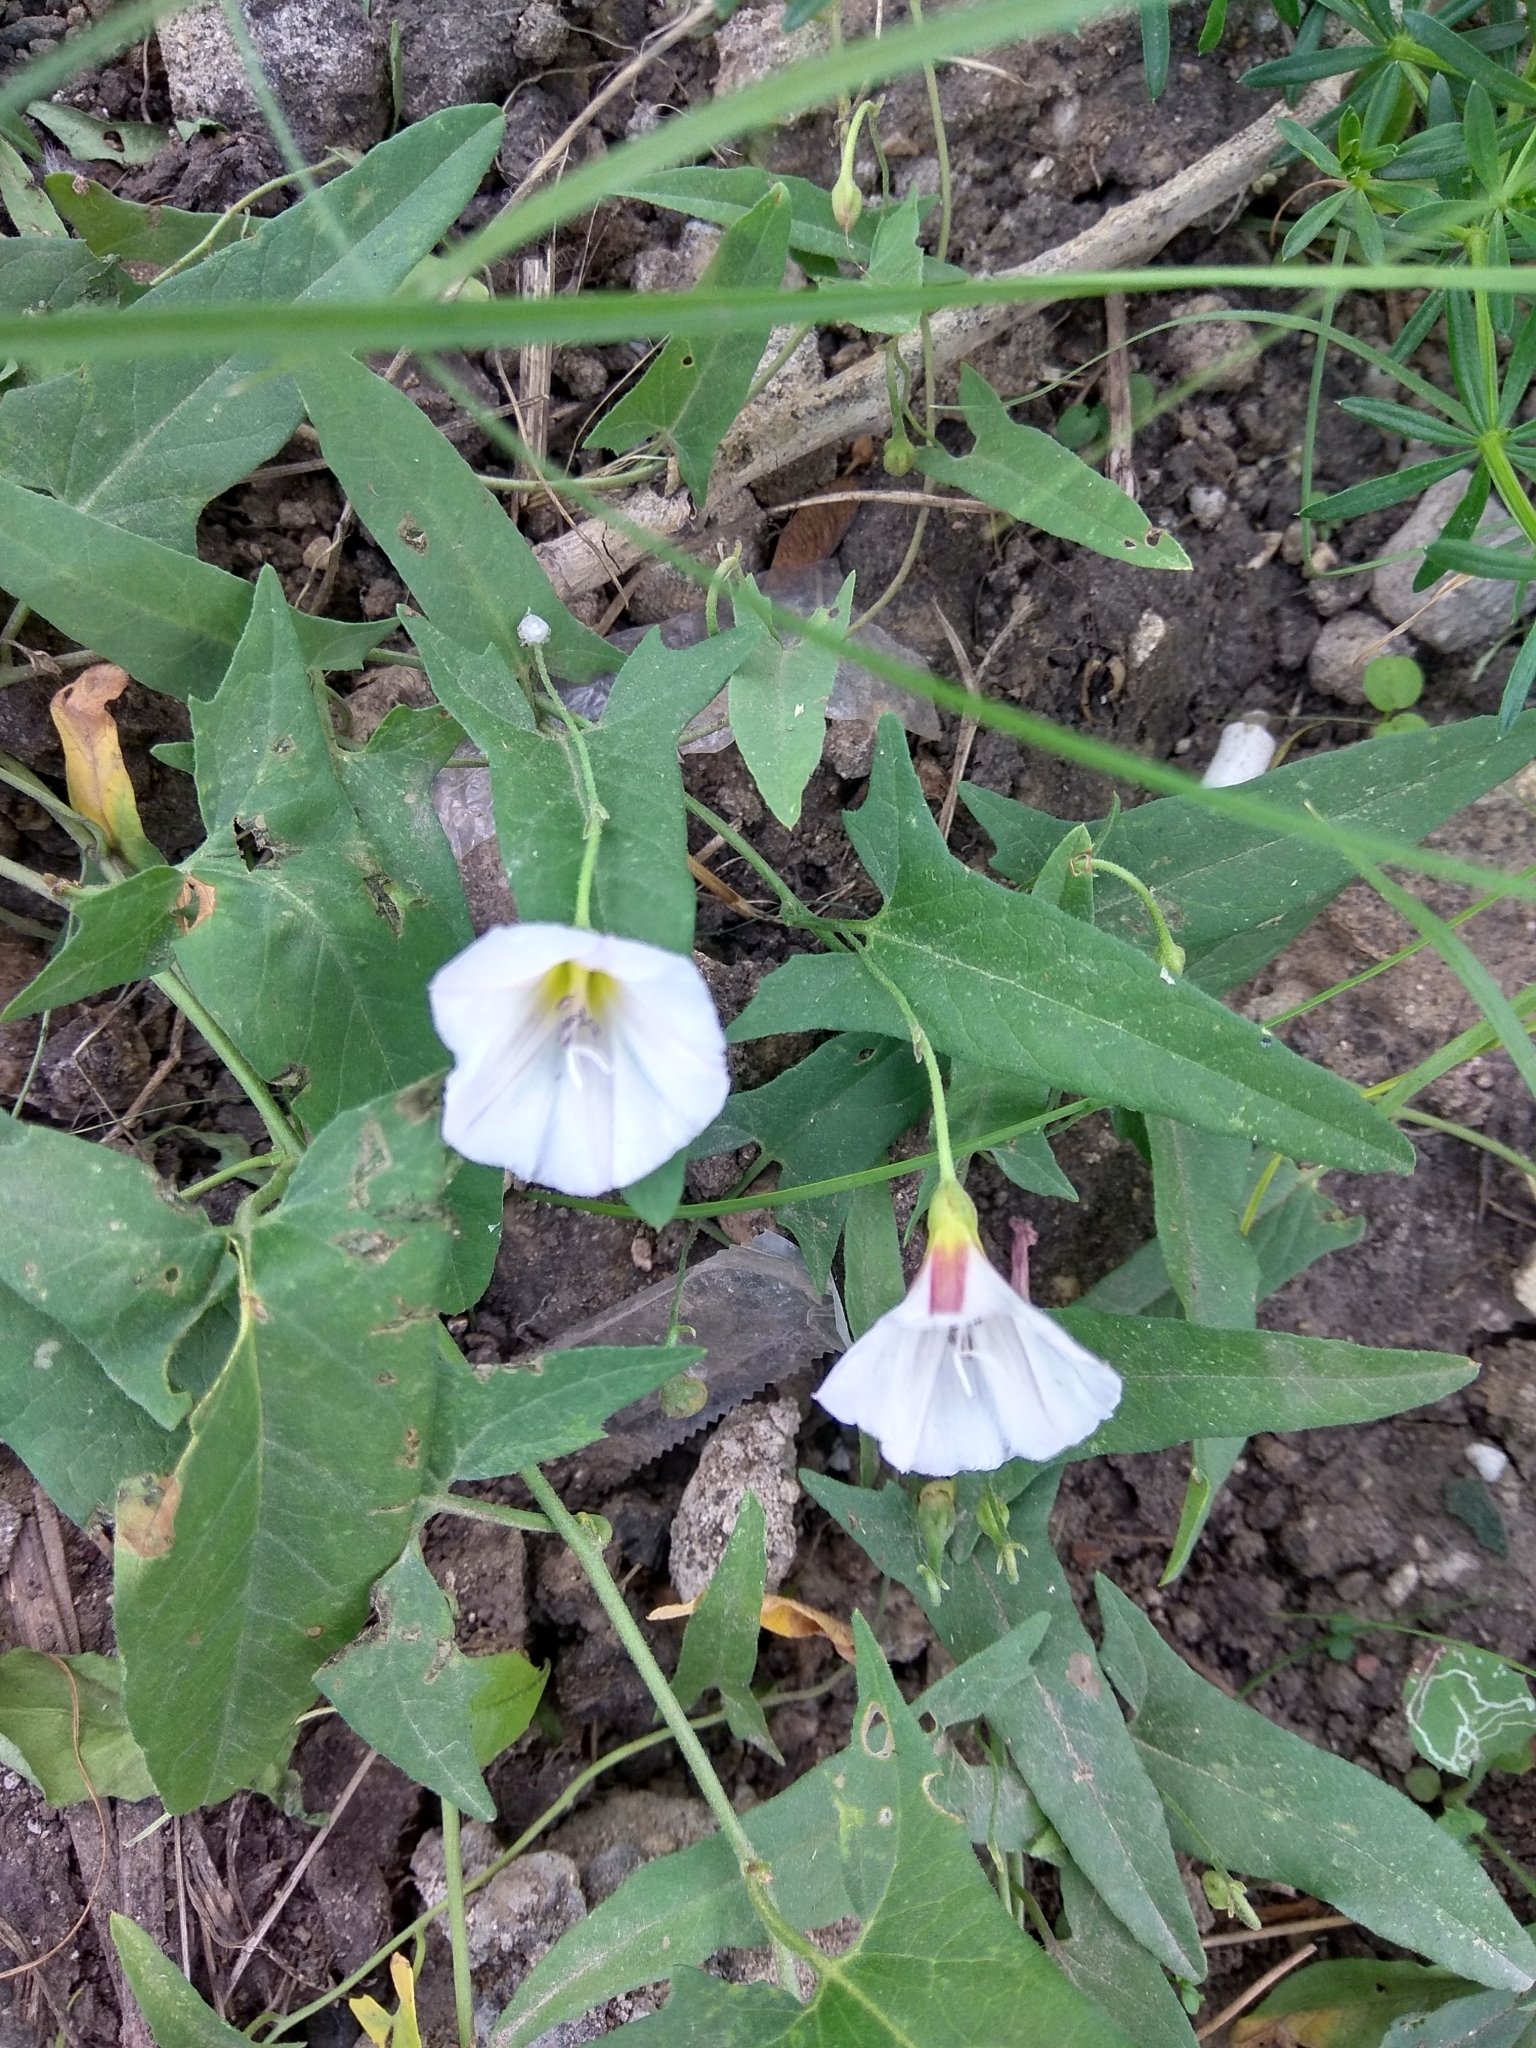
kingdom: Plantae
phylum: Tracheophyta
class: Magnoliopsida
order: Solanales
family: Convolvulaceae
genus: Convolvulus
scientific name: Convolvulus arvensis
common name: Field bindweed
